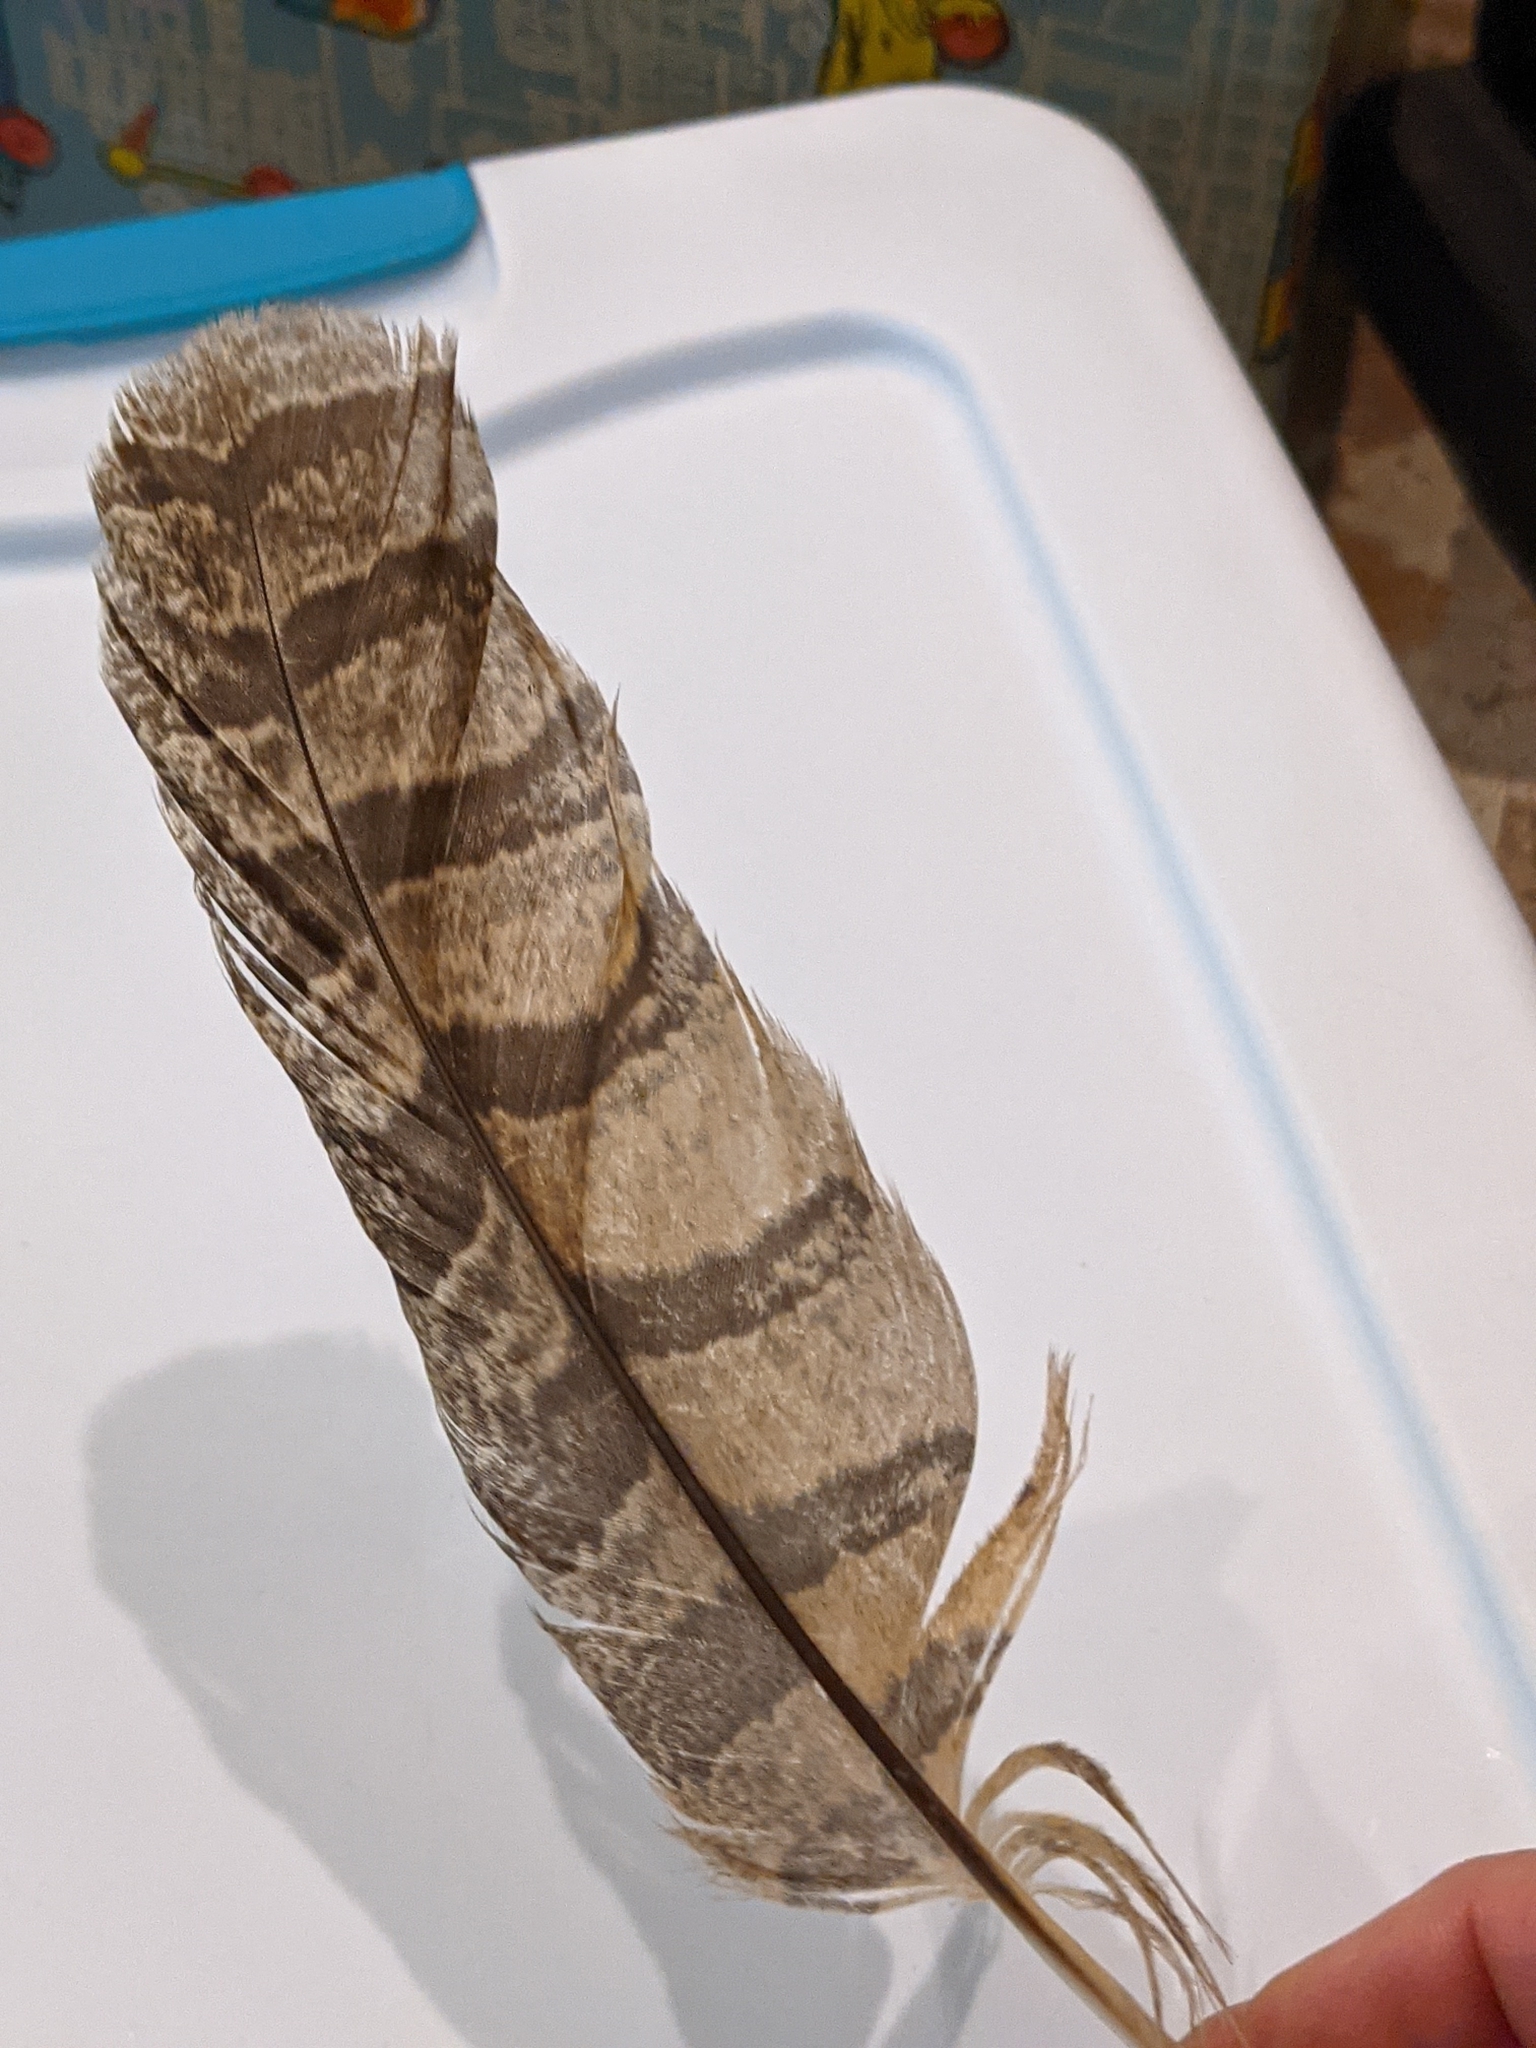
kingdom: Animalia
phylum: Chordata
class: Aves
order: Strigiformes
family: Strigidae
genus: Bubo
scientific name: Bubo virginianus
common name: Great horned owl
